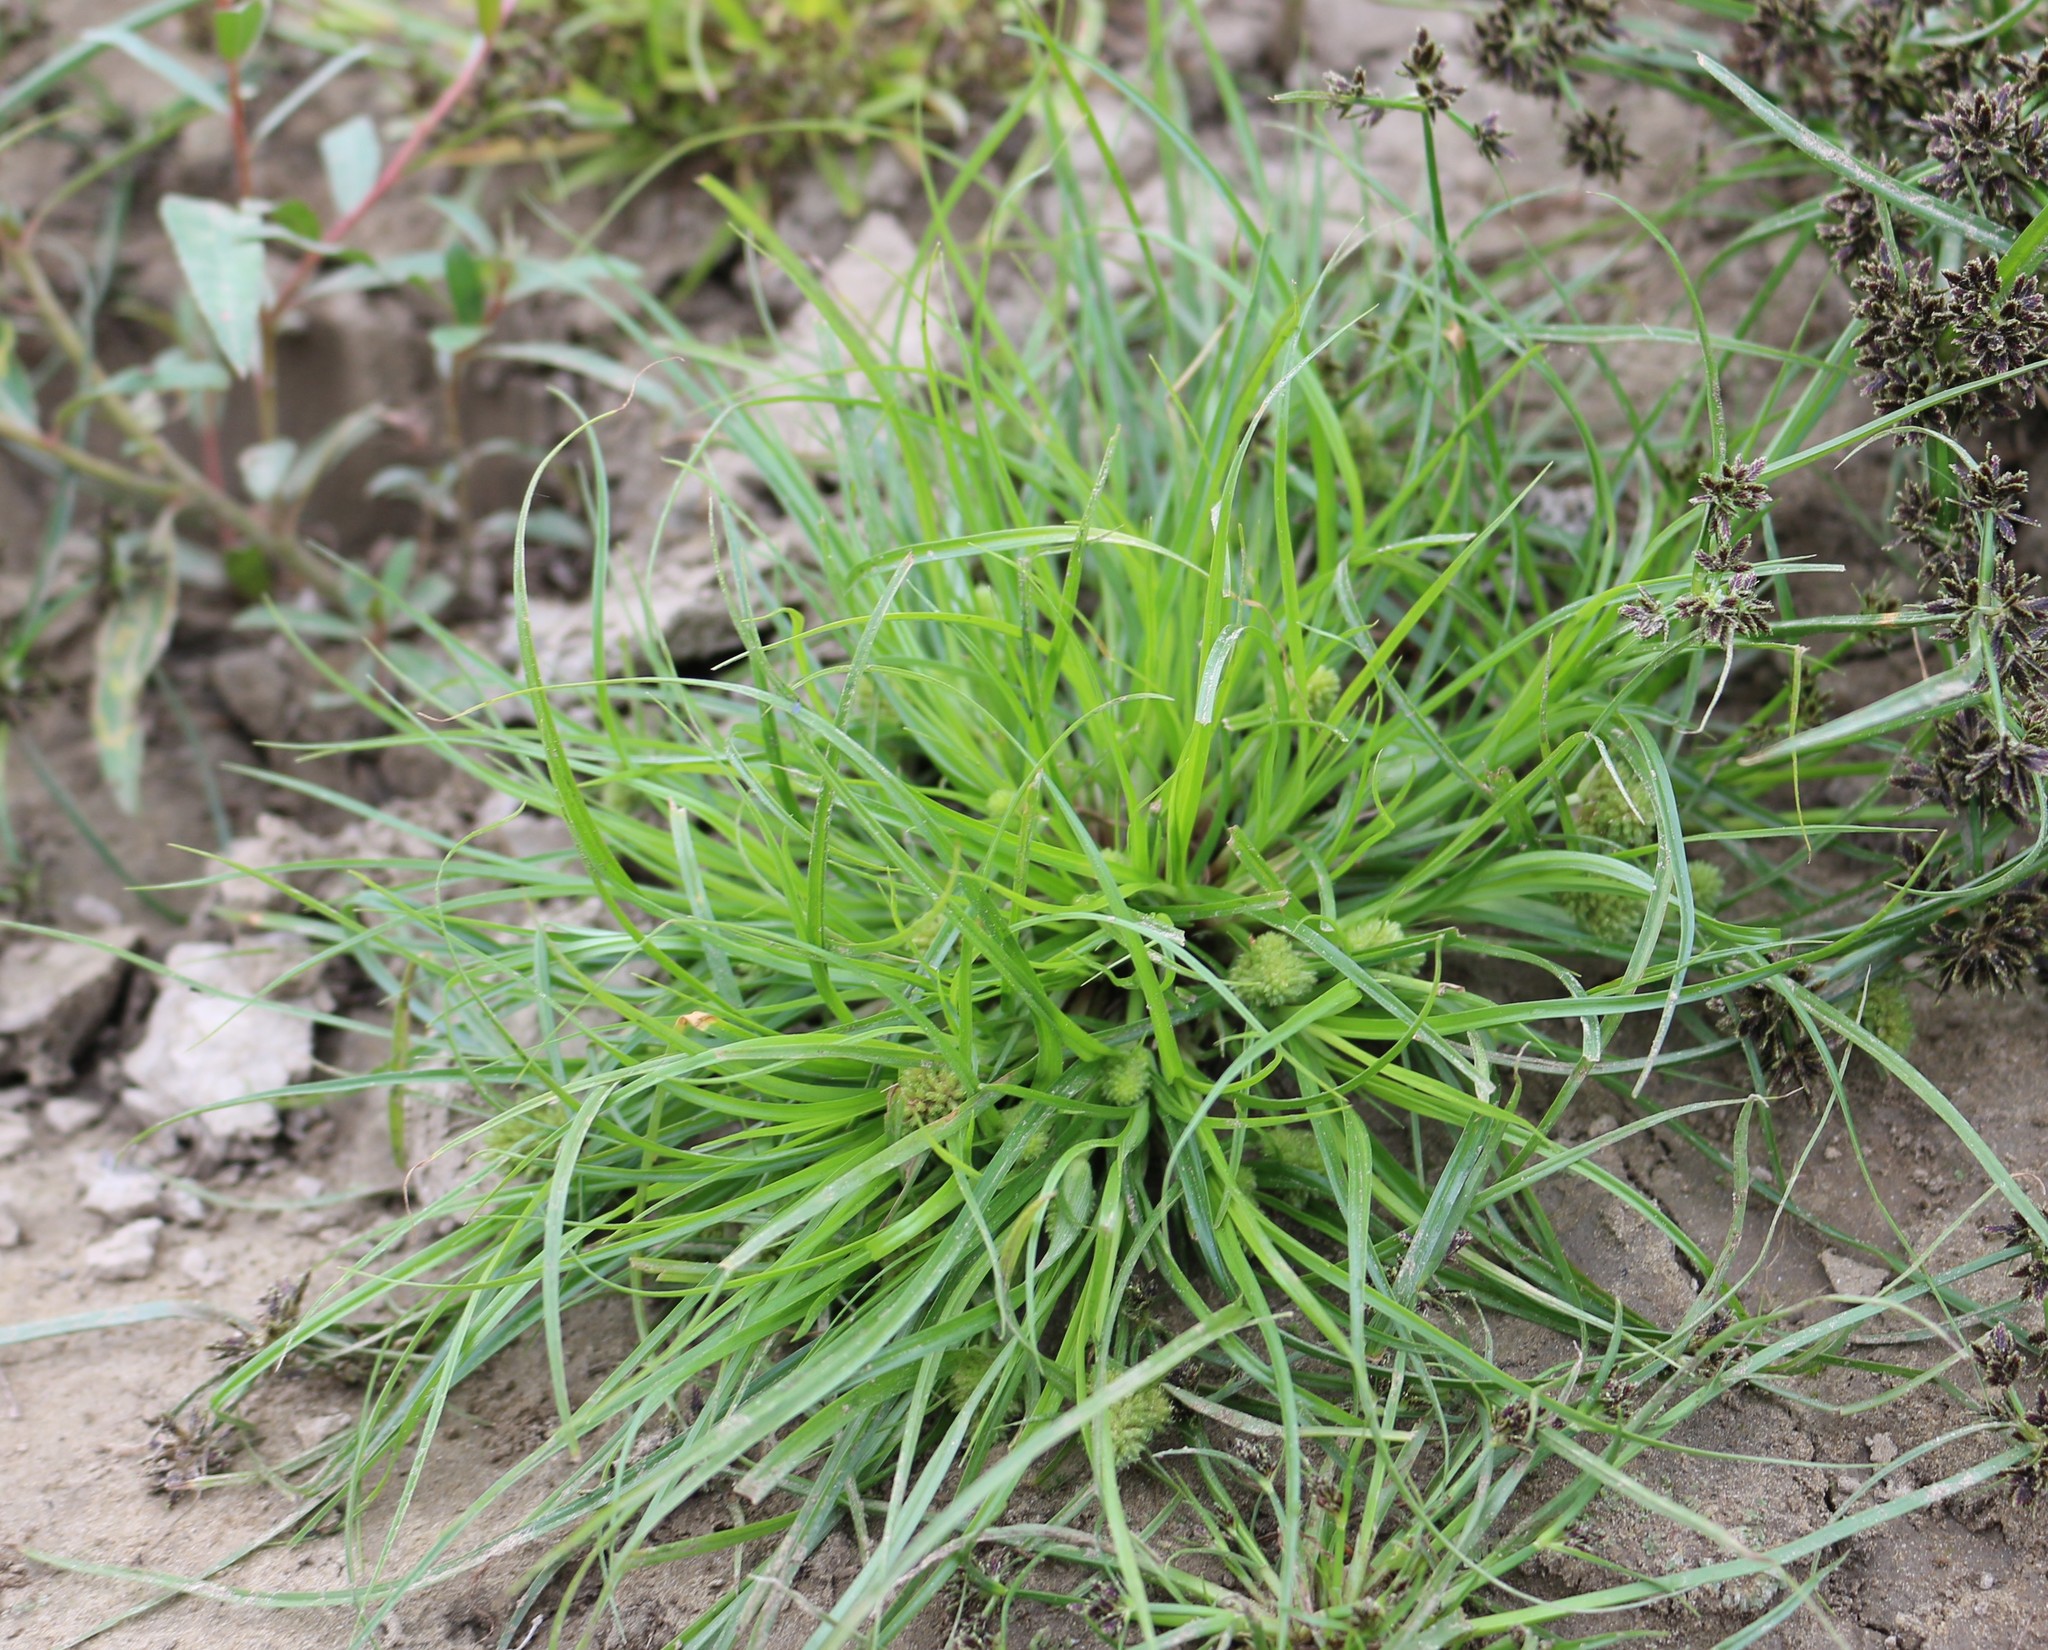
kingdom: Plantae
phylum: Tracheophyta
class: Liliopsida
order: Poales
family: Cyperaceae
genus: Cyperus
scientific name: Cyperus michelianus
